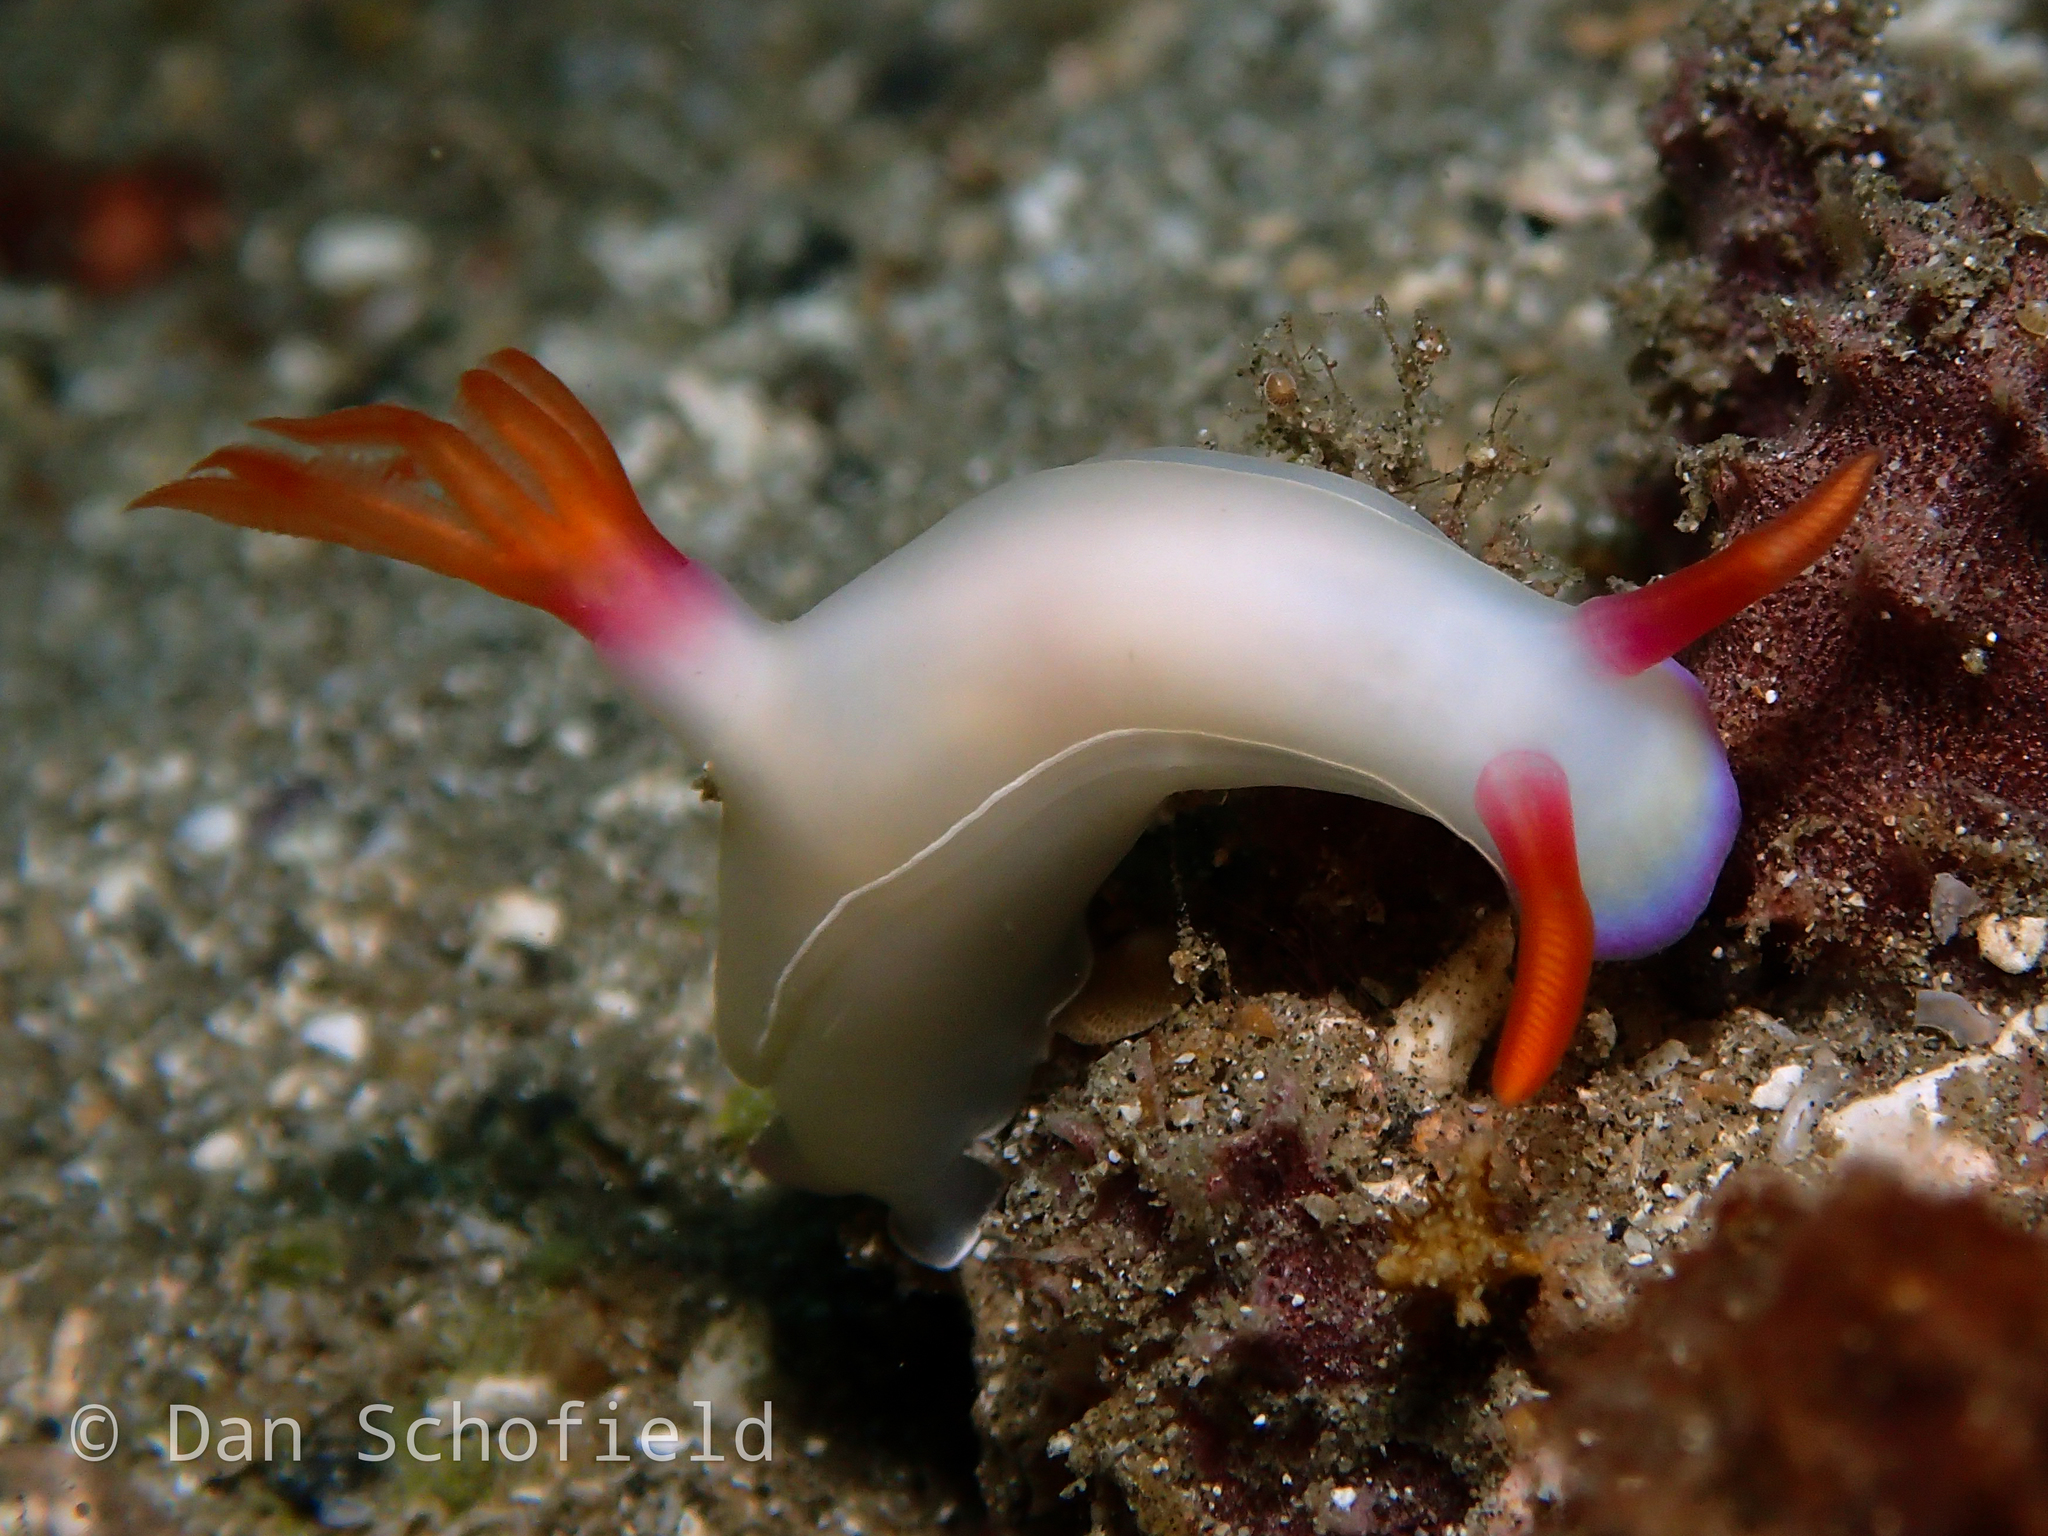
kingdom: Animalia
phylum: Mollusca
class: Gastropoda
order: Nudibranchia
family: Chromodorididae
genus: Hypselodoris
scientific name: Hypselodoris bullockii
